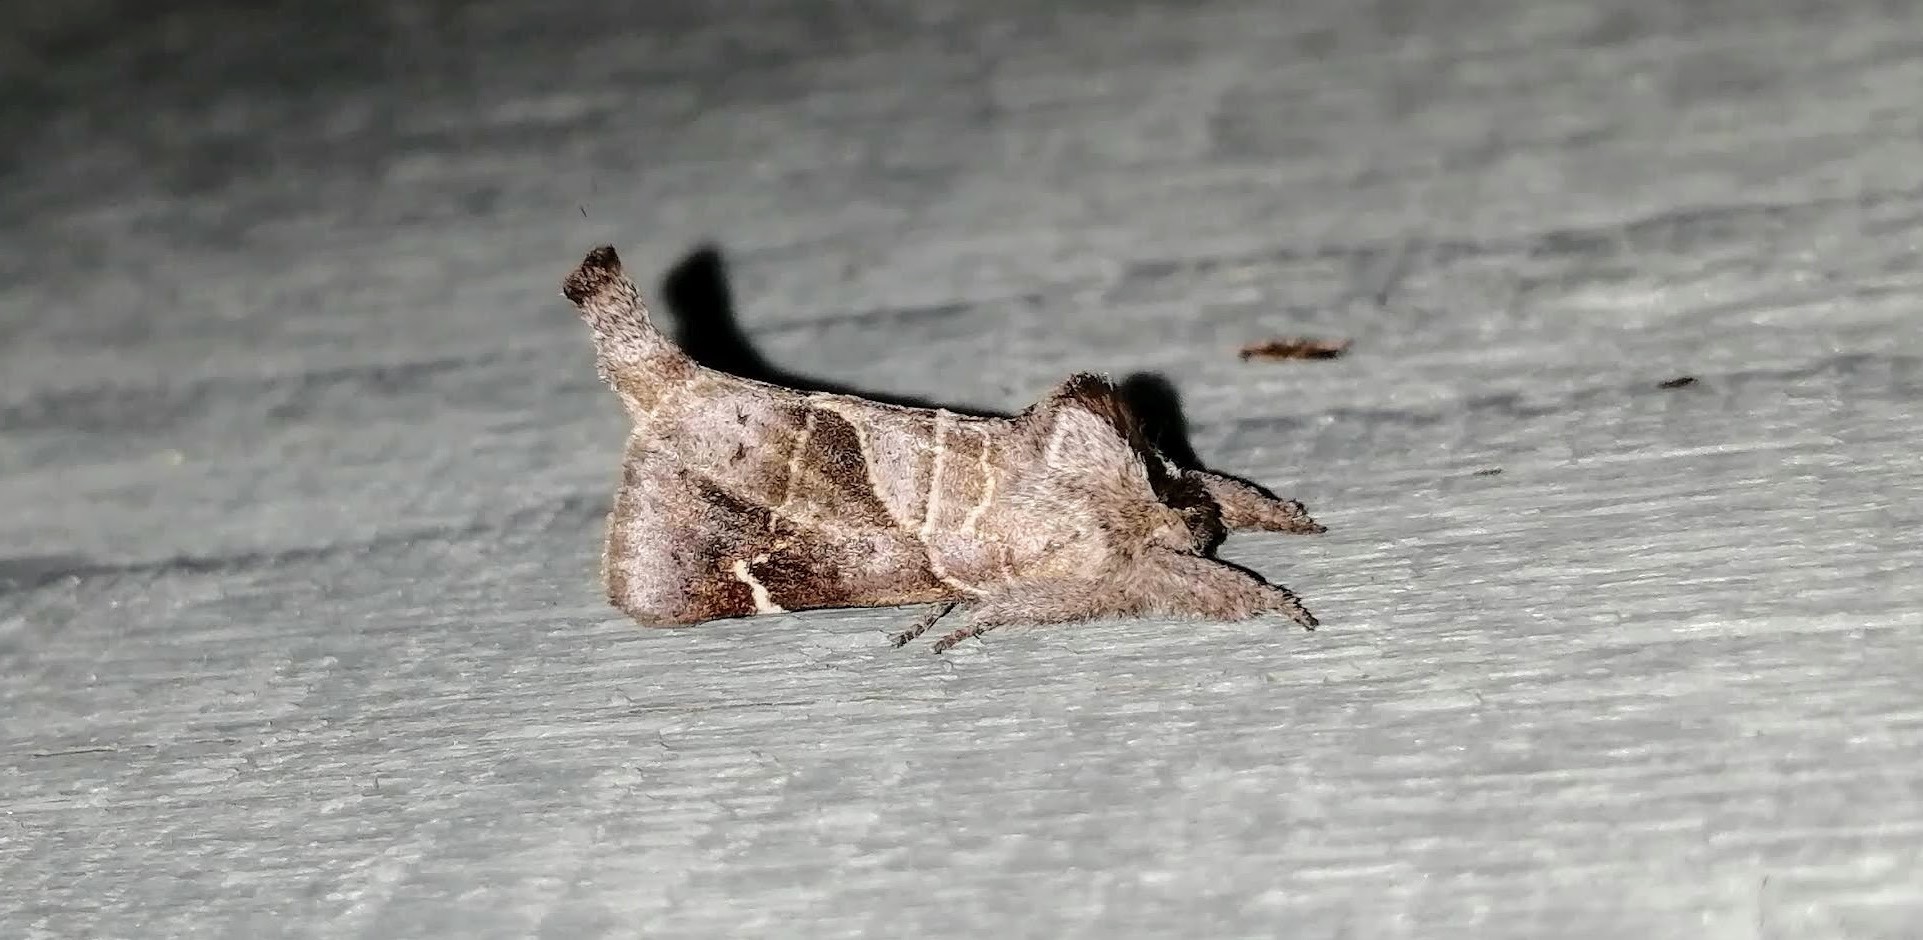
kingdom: Animalia
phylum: Arthropoda
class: Insecta
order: Lepidoptera
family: Notodontidae
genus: Clostera
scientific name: Clostera apicalis
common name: Apical prominent
